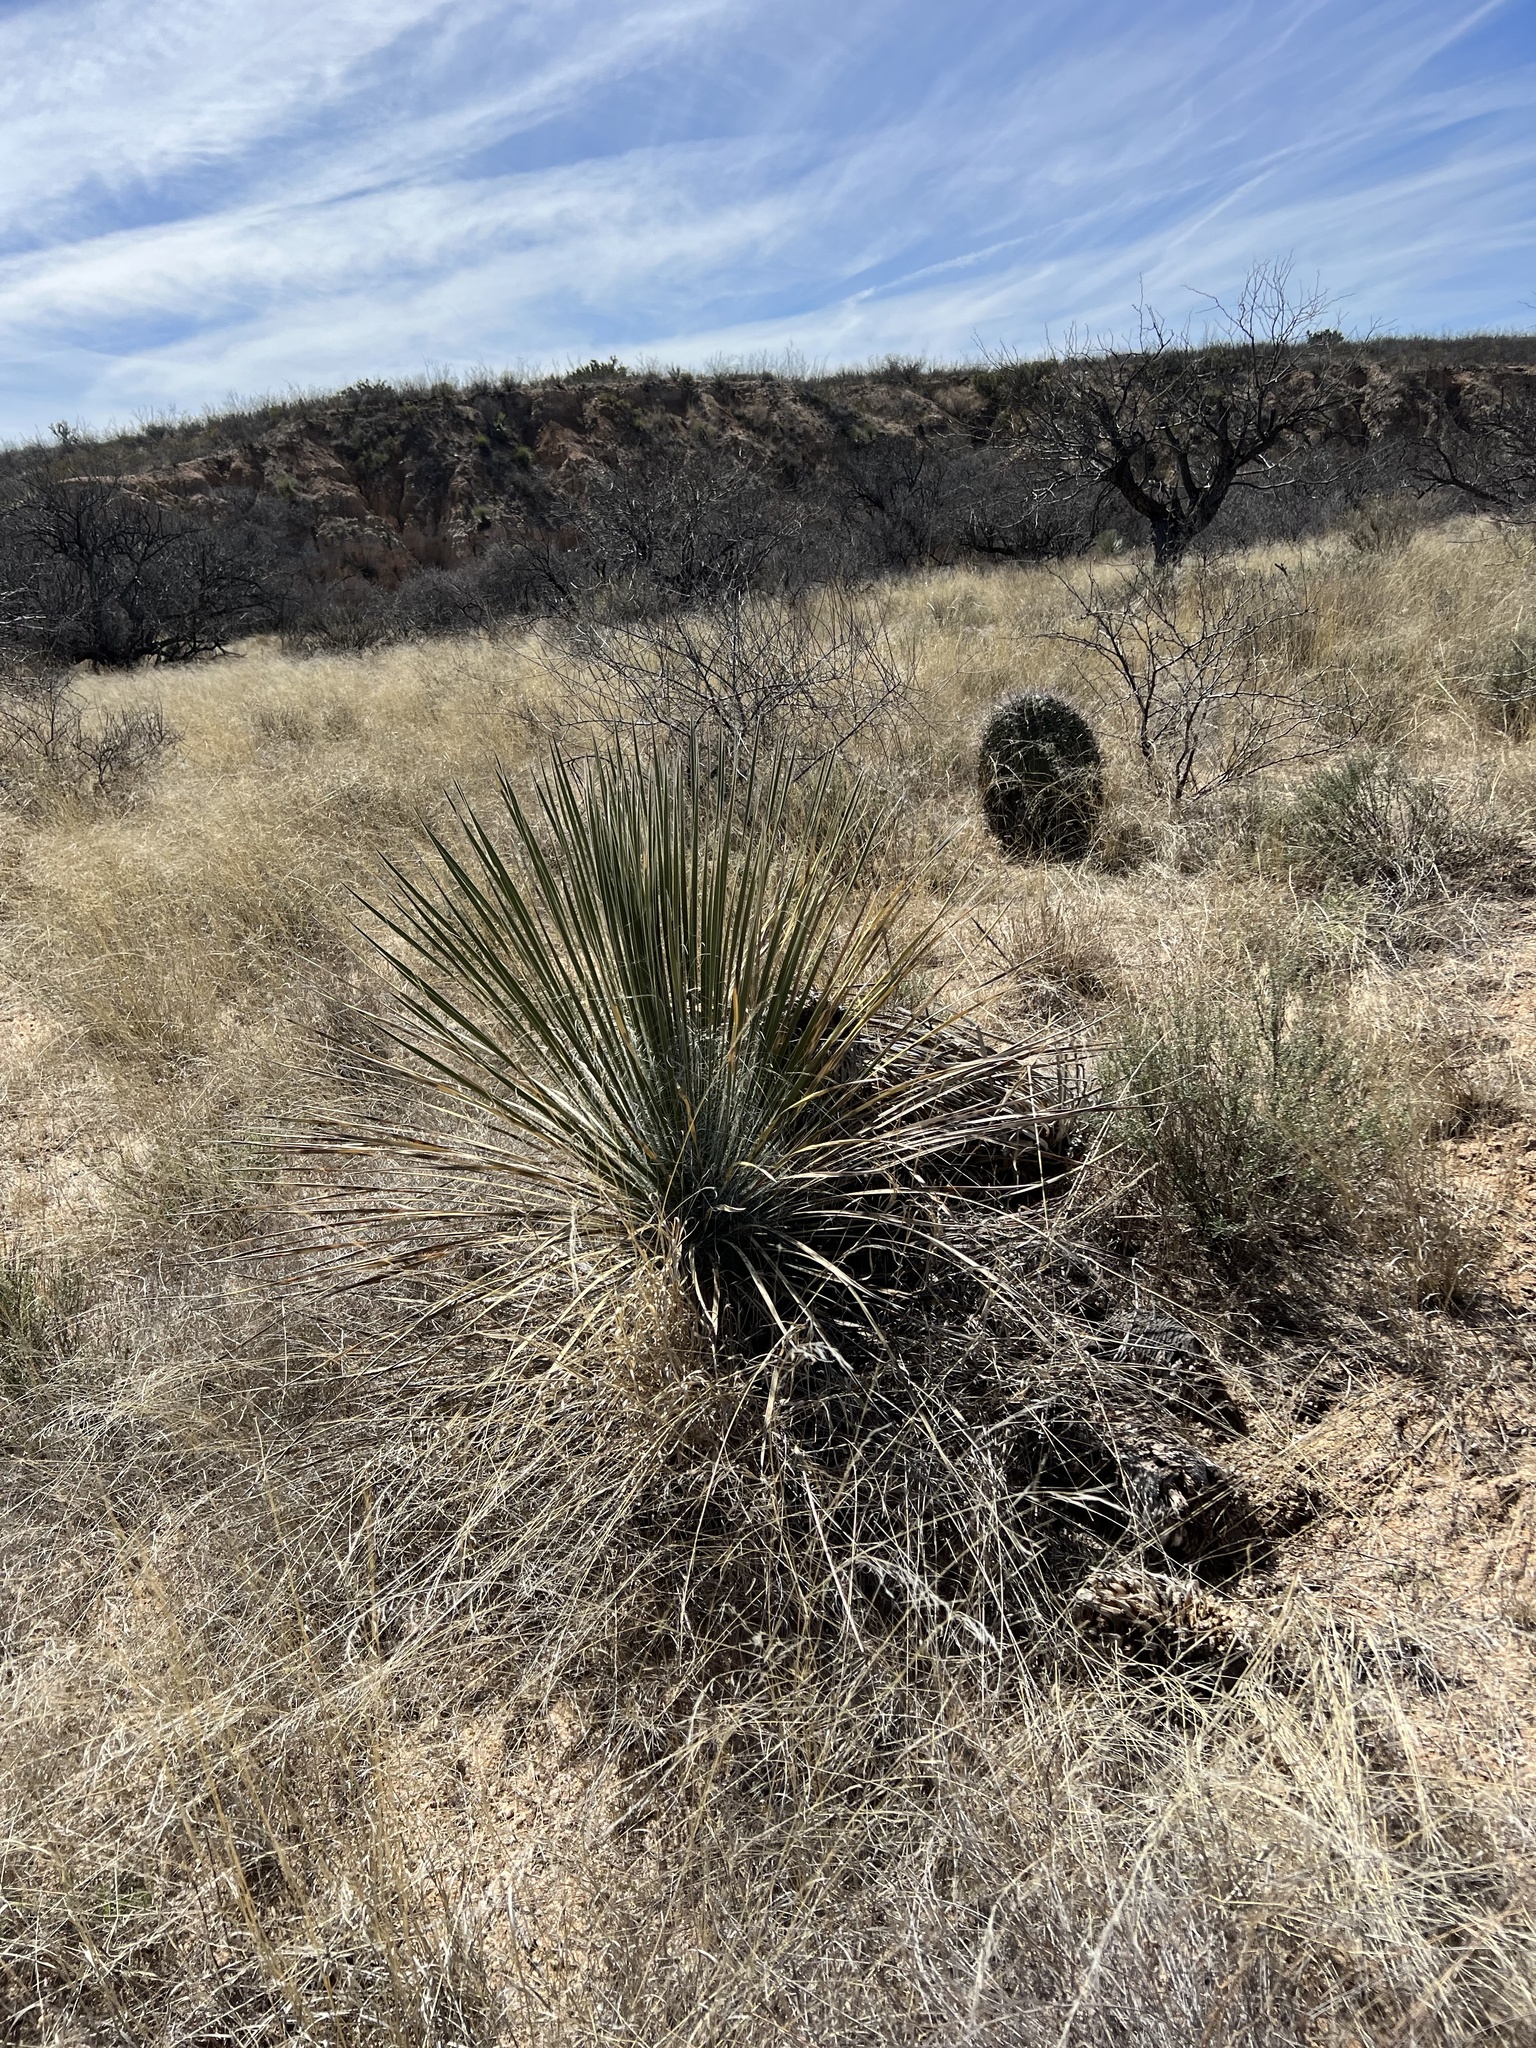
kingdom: Plantae
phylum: Tracheophyta
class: Liliopsida
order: Asparagales
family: Asparagaceae
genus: Yucca
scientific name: Yucca elata
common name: Palmella
